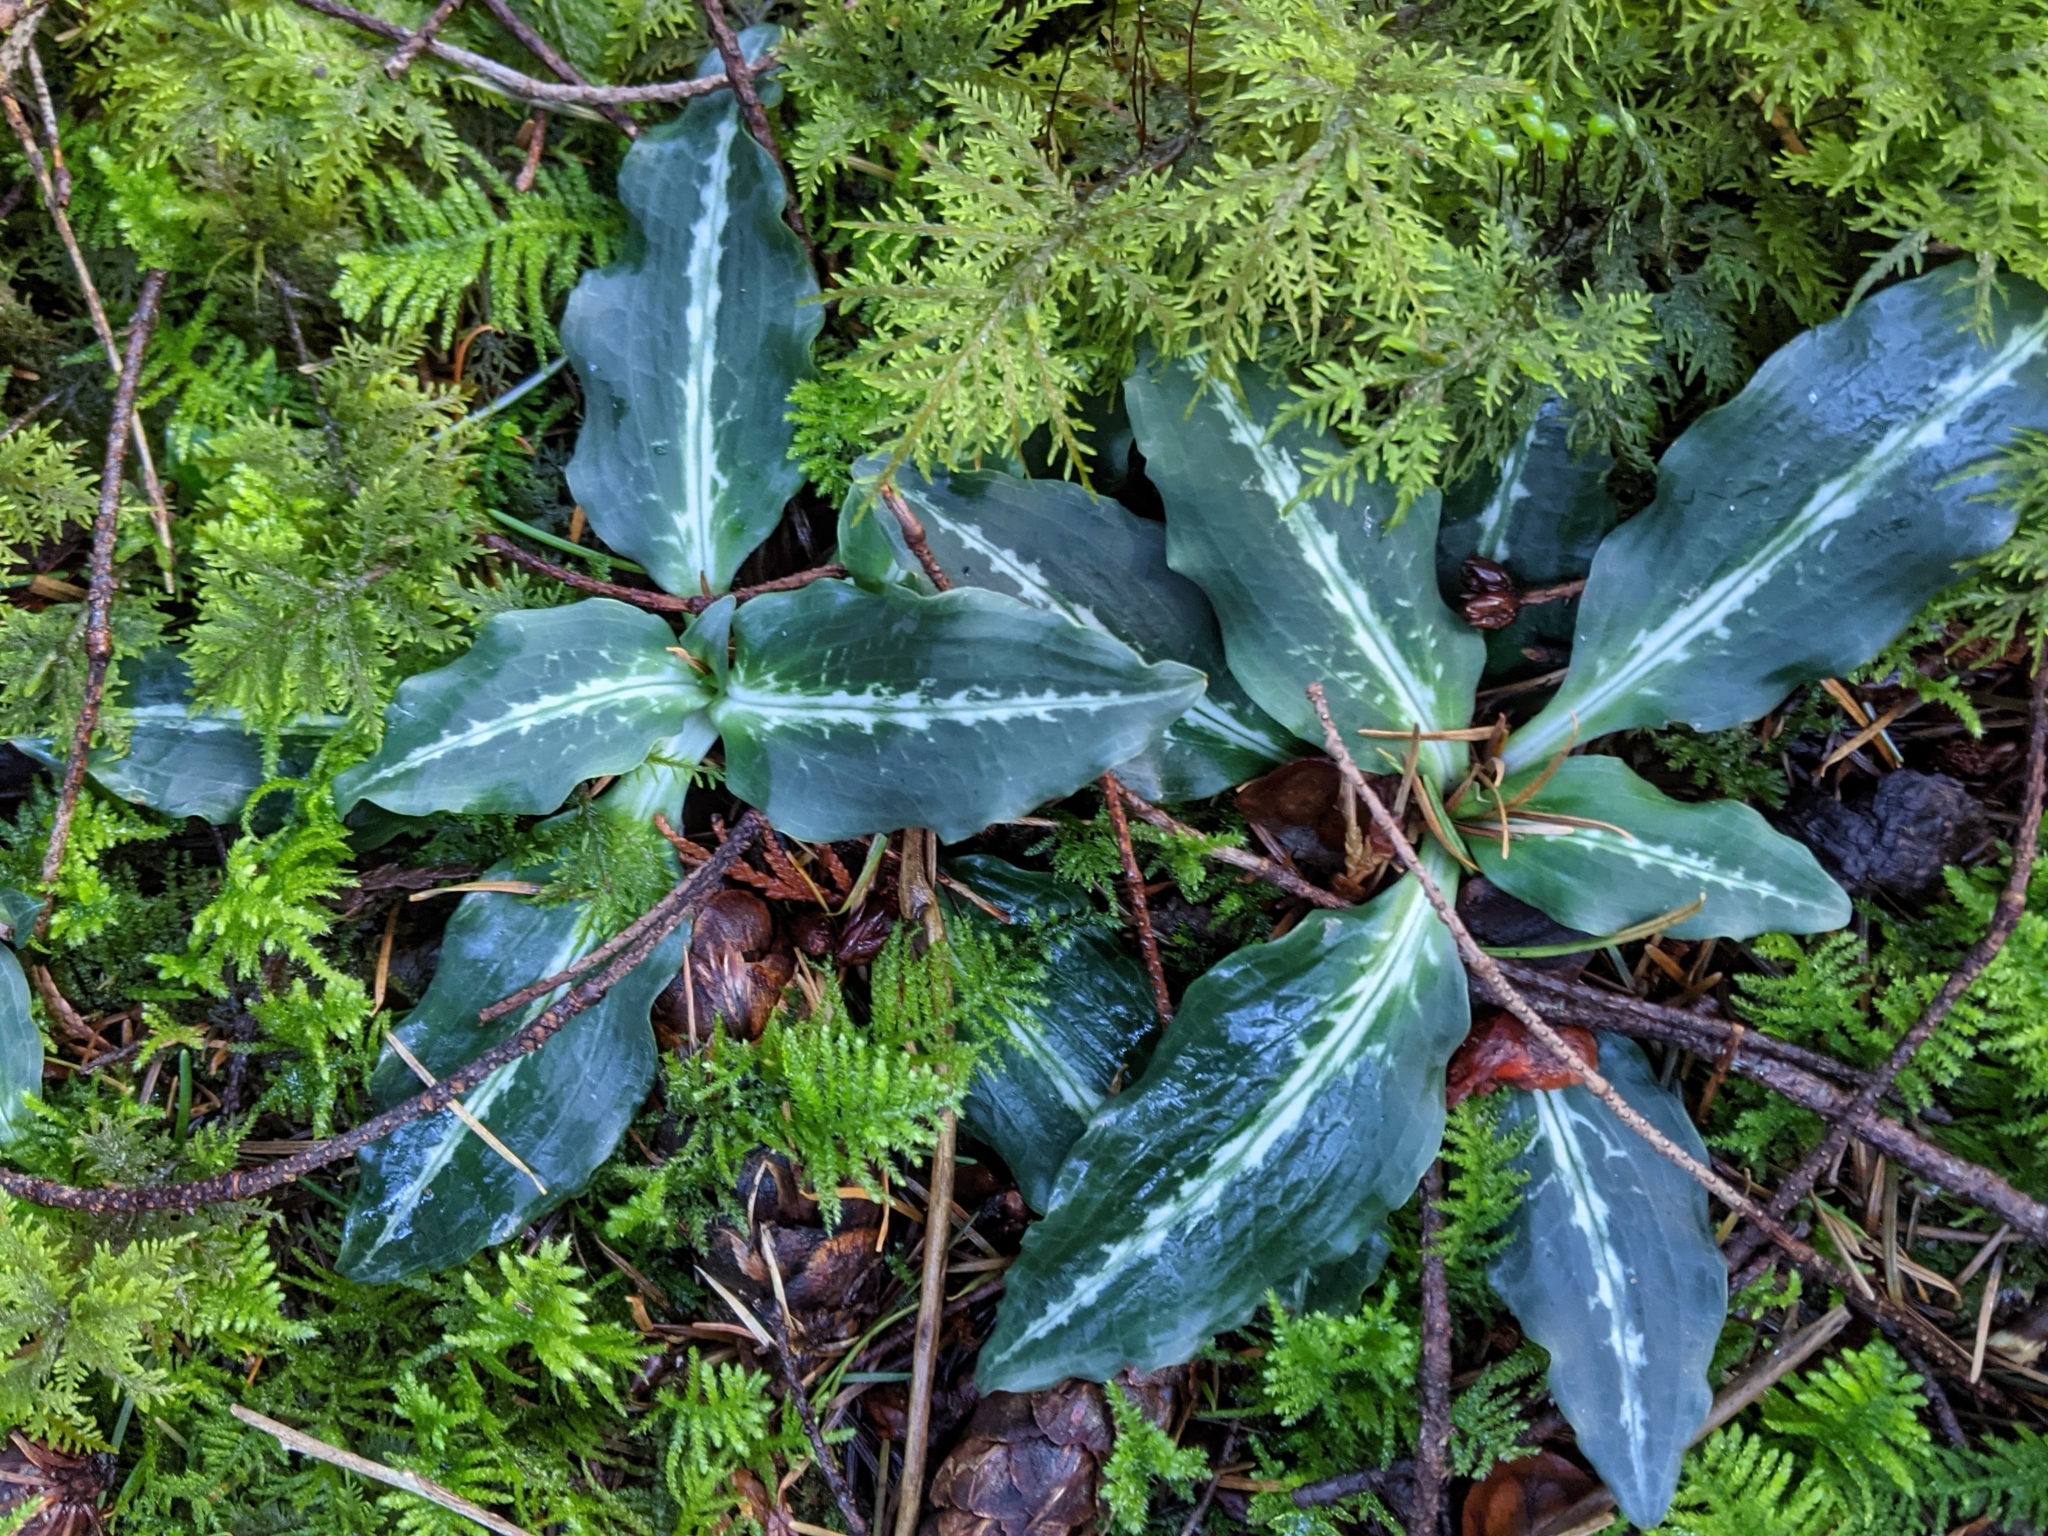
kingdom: Plantae
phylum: Tracheophyta
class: Liliopsida
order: Asparagales
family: Orchidaceae
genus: Goodyera
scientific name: Goodyera oblongifolia
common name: Giant rattlesnake-plantain
